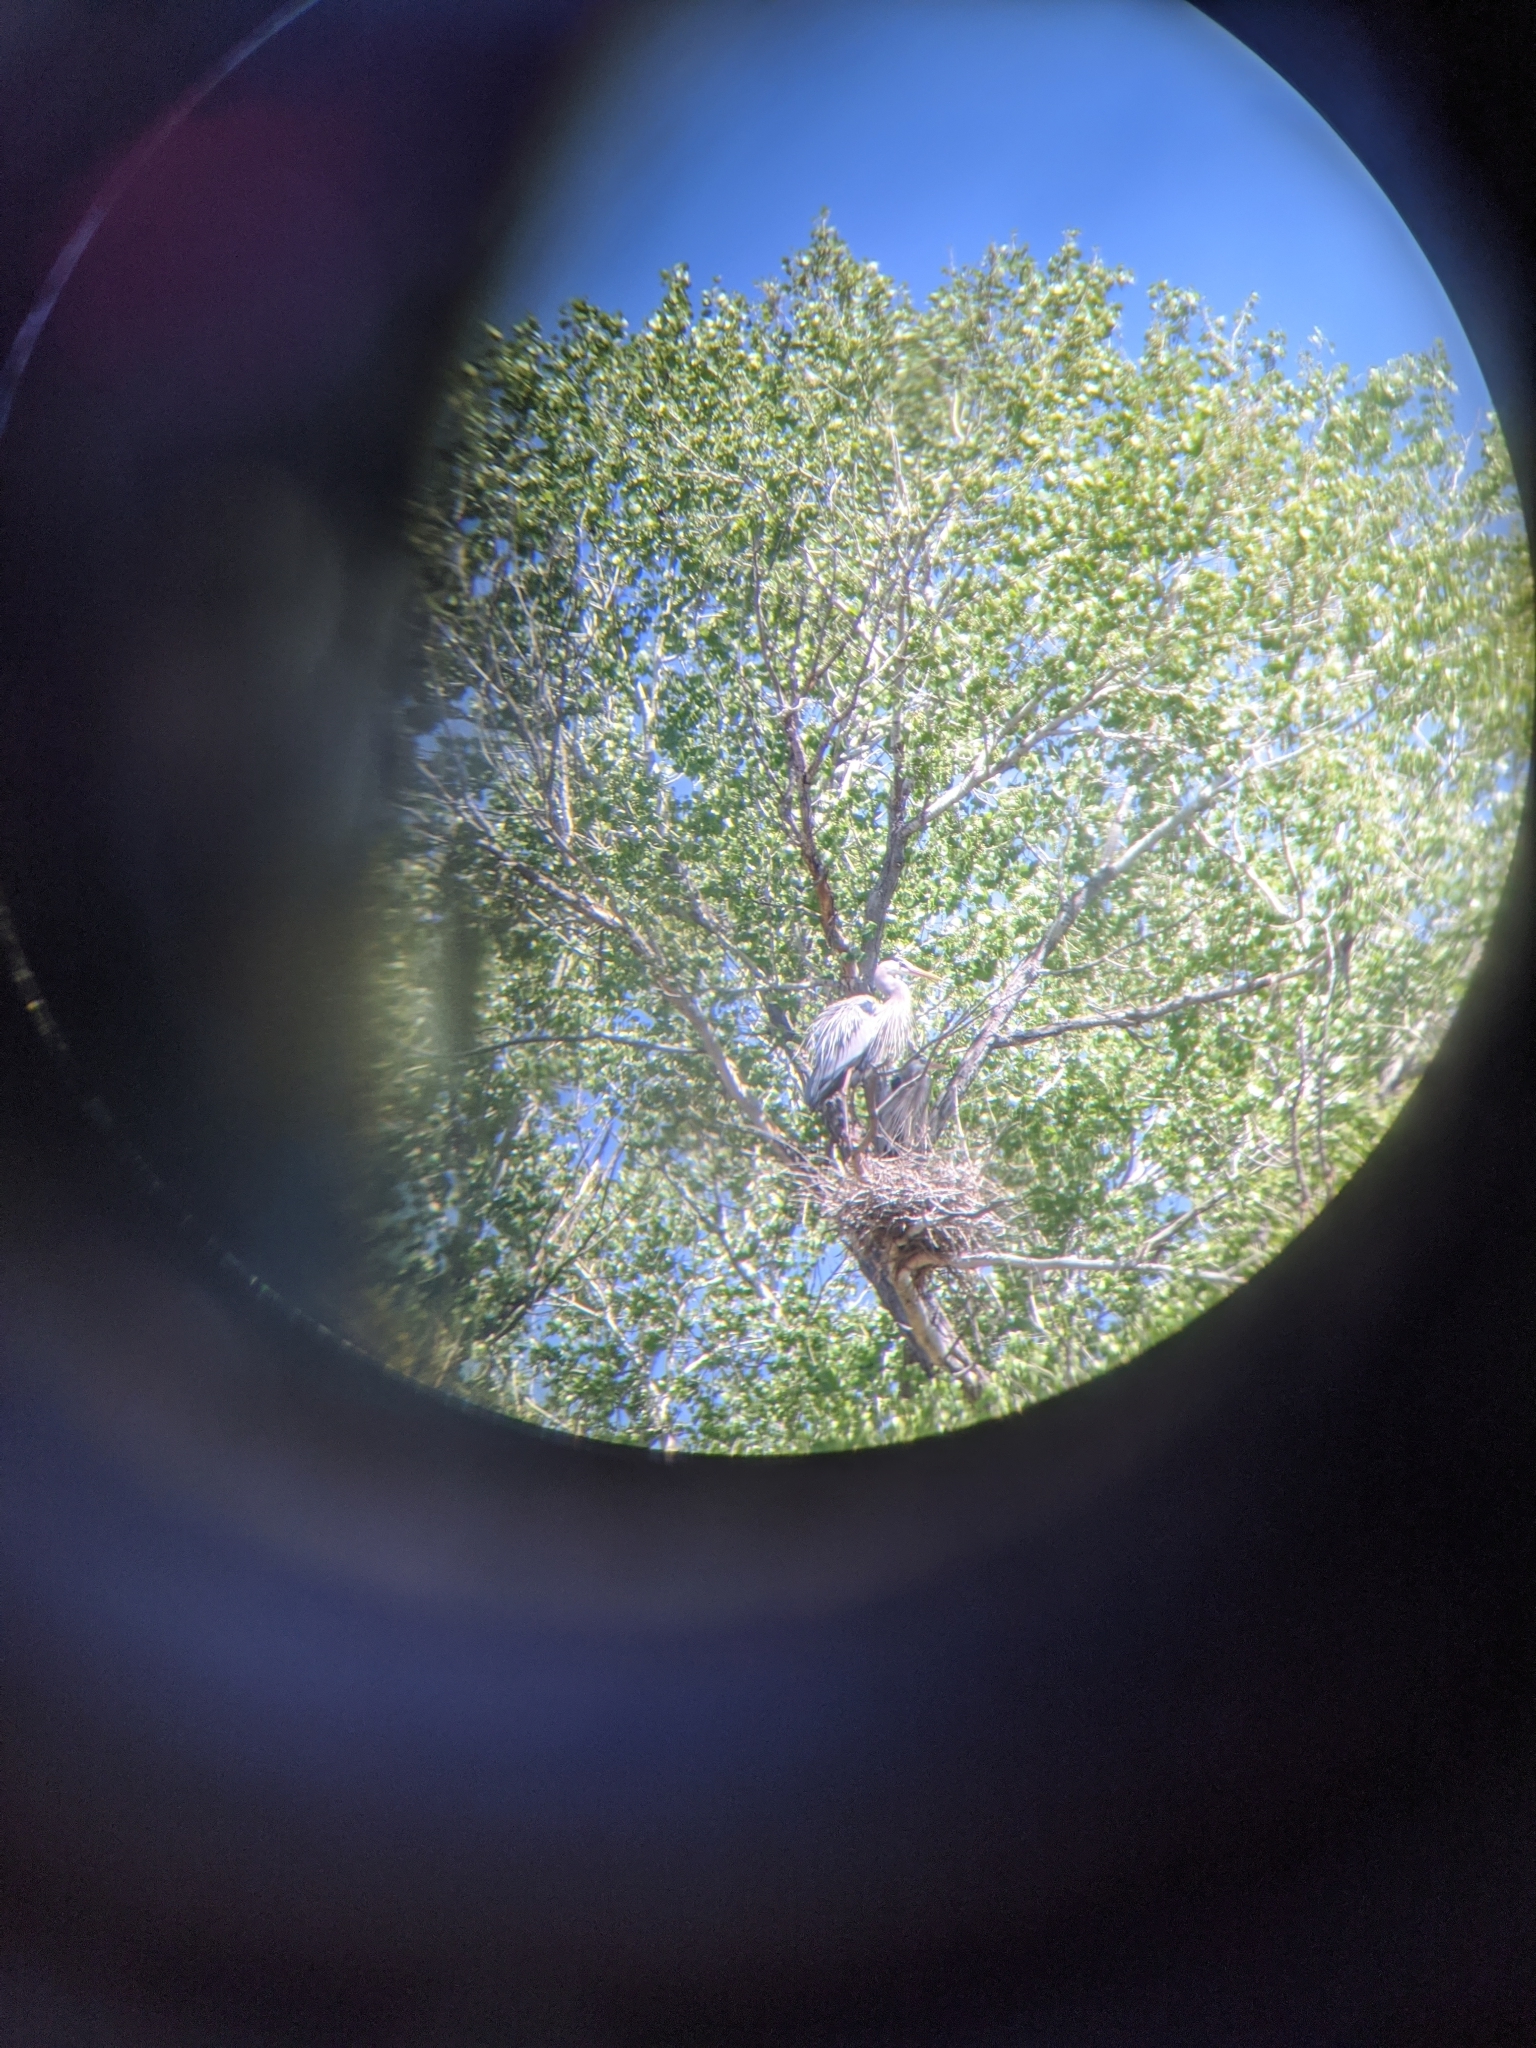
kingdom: Animalia
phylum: Chordata
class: Aves
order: Pelecaniformes
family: Ardeidae
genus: Ardea
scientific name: Ardea herodias
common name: Great blue heron
